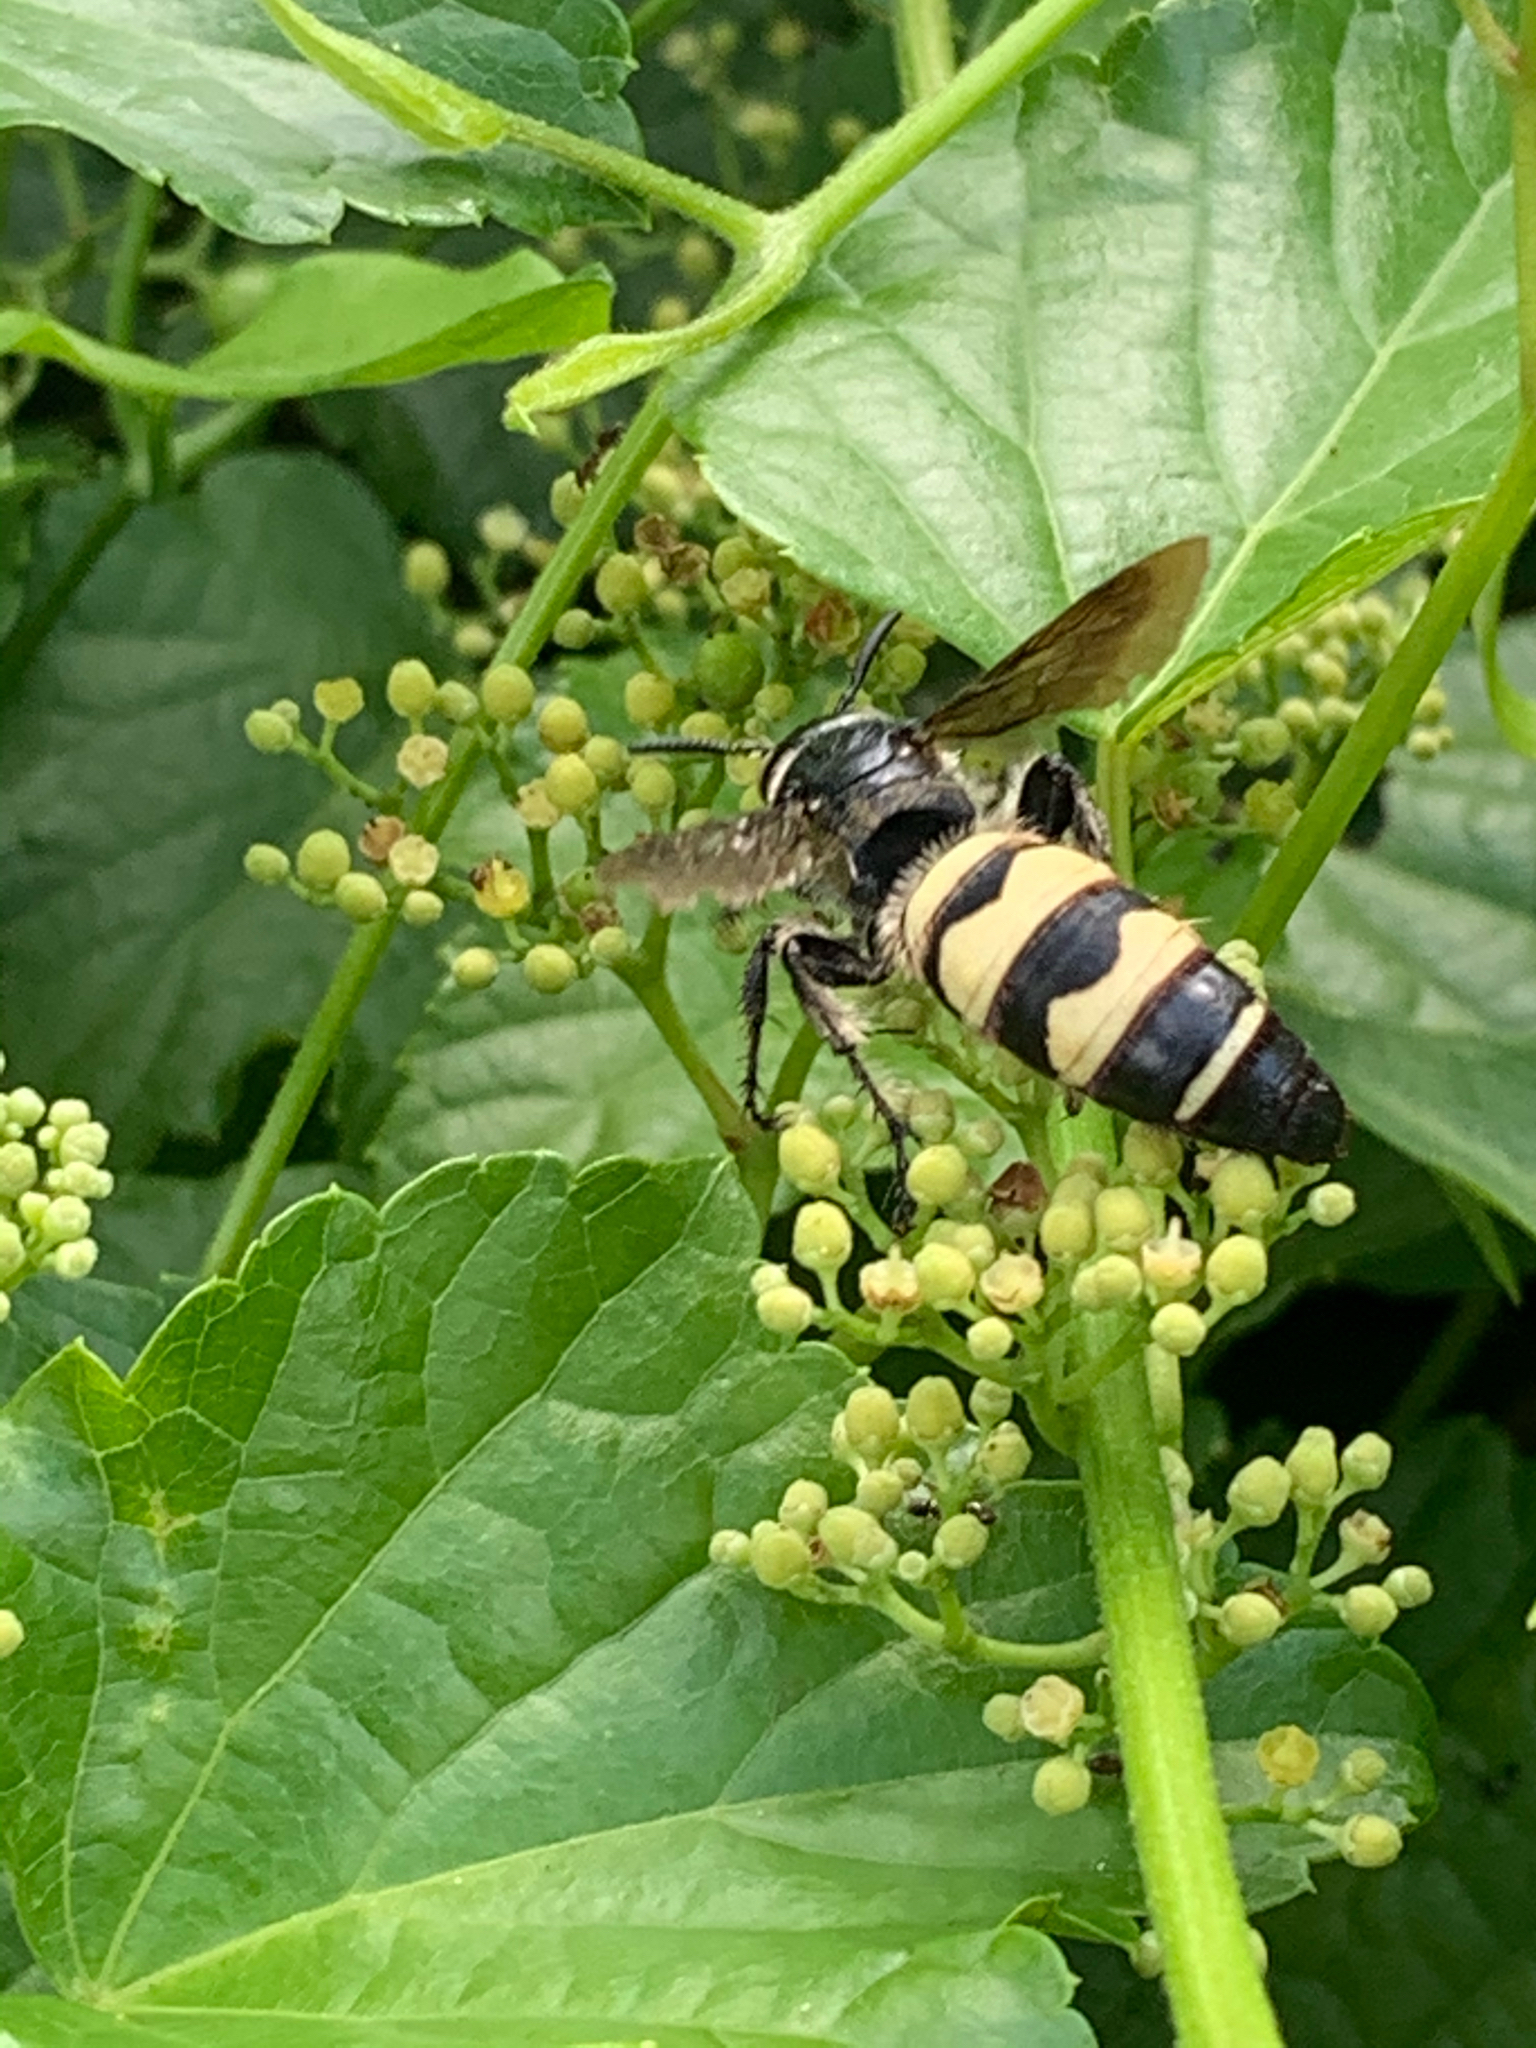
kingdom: Animalia
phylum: Arthropoda
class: Insecta
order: Hymenoptera
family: Scoliidae
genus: Dielis
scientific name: Dielis
